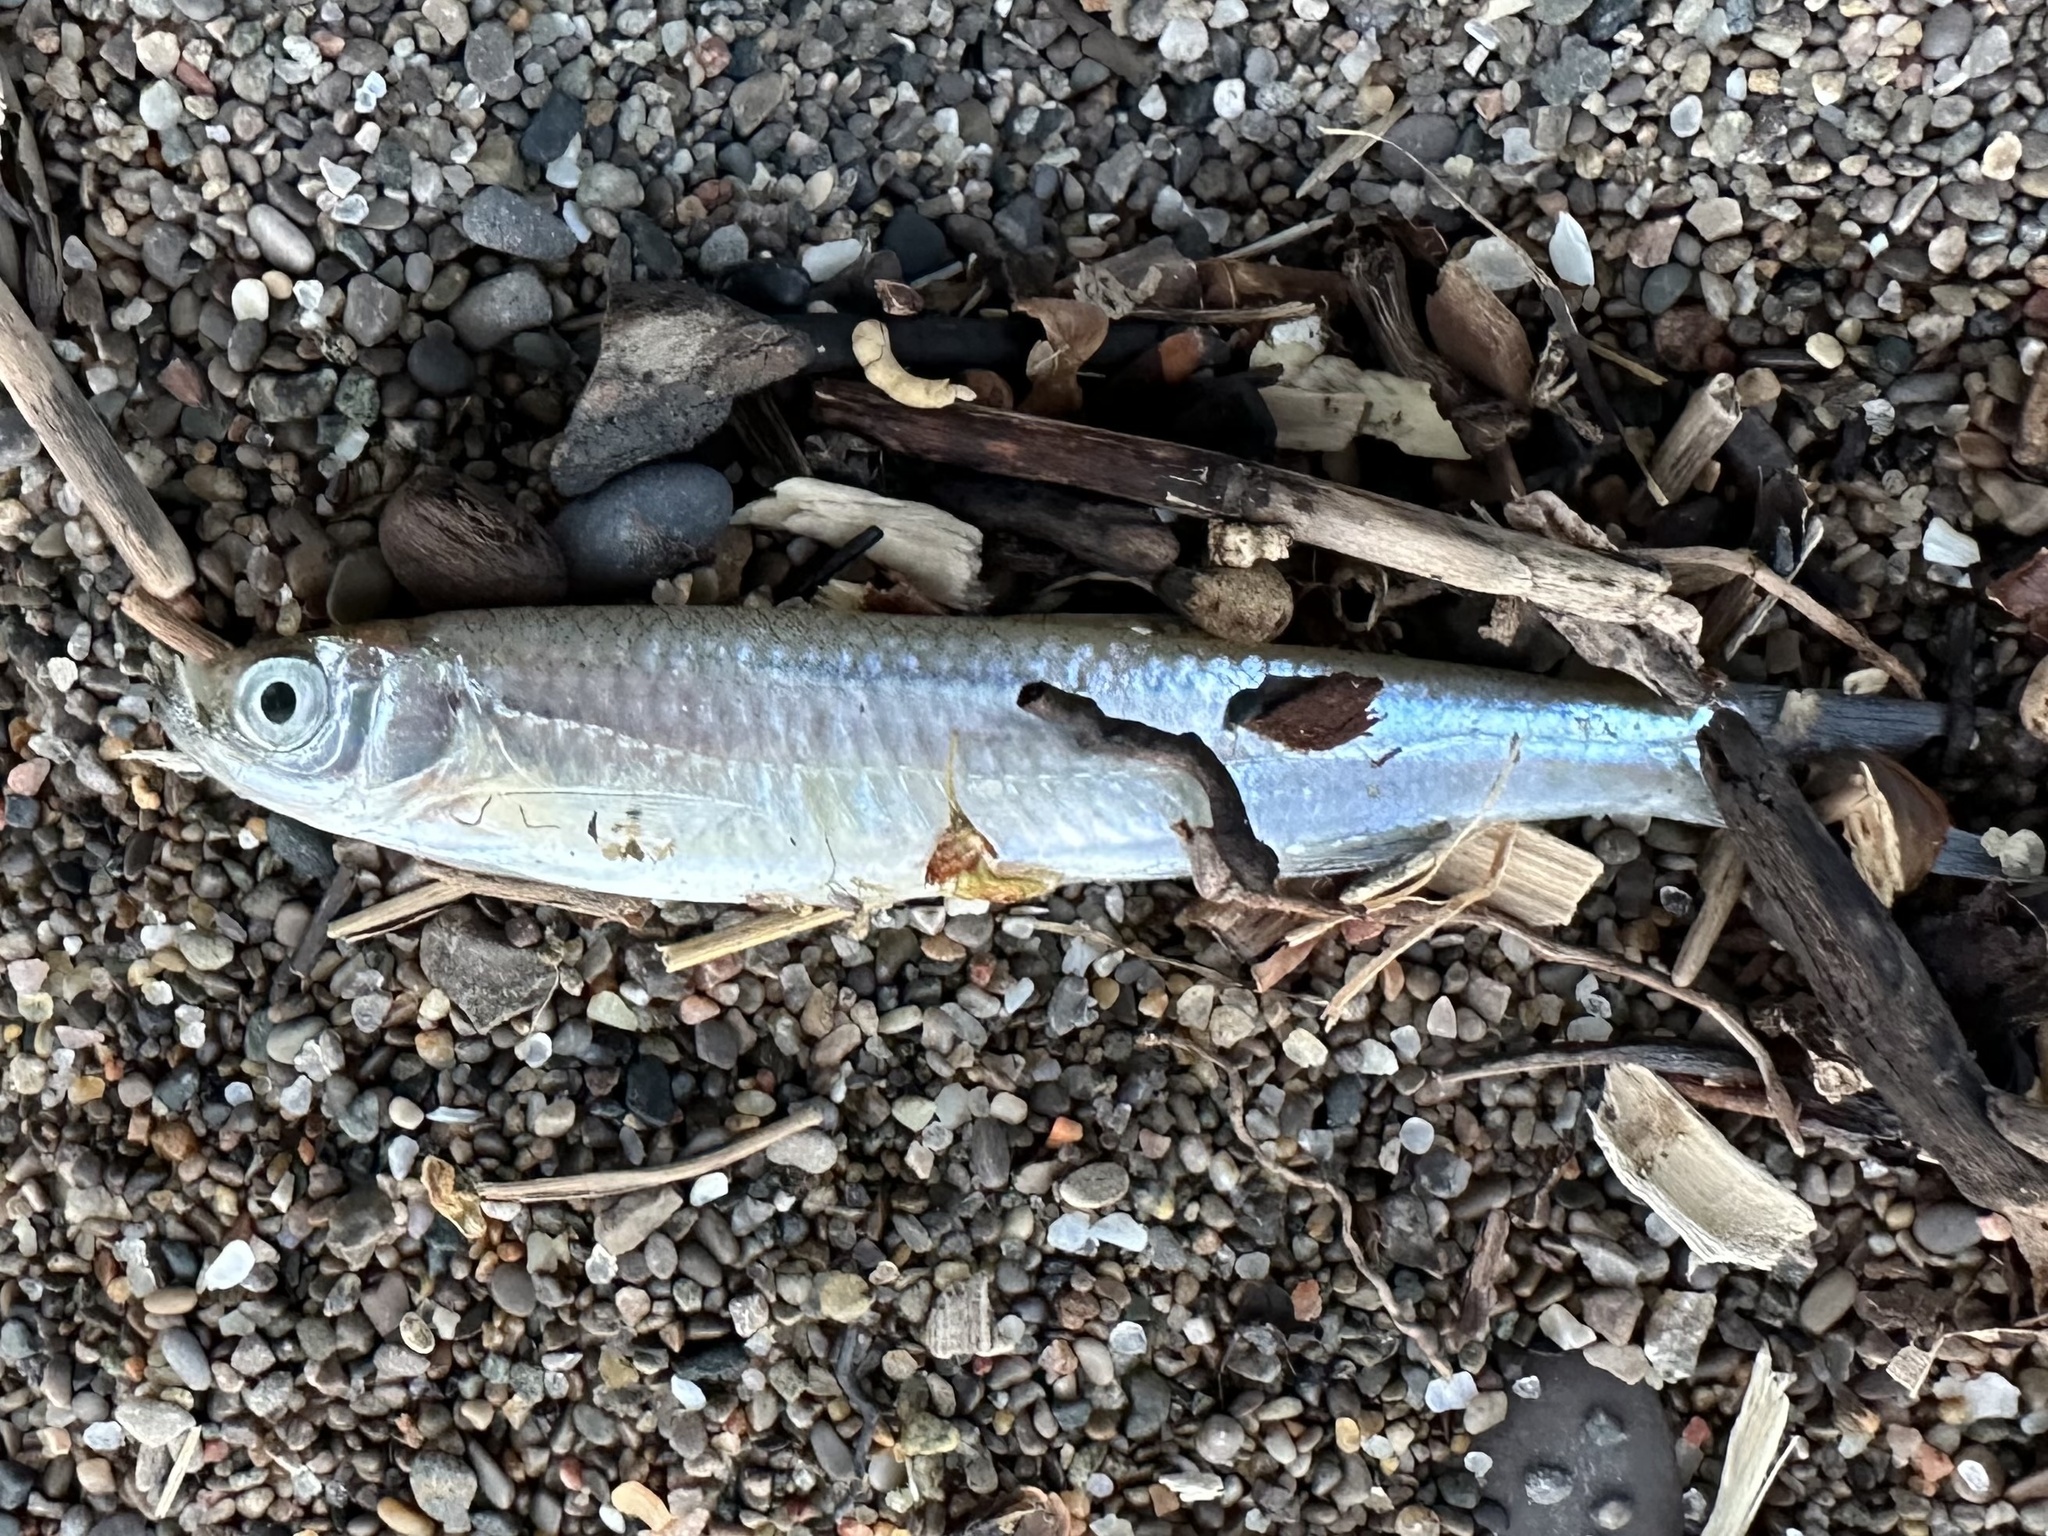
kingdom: Animalia
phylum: Chordata
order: Cypriniformes
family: Cyprinidae
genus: Notropis
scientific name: Notropis atherinoides
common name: Emerald shiner
